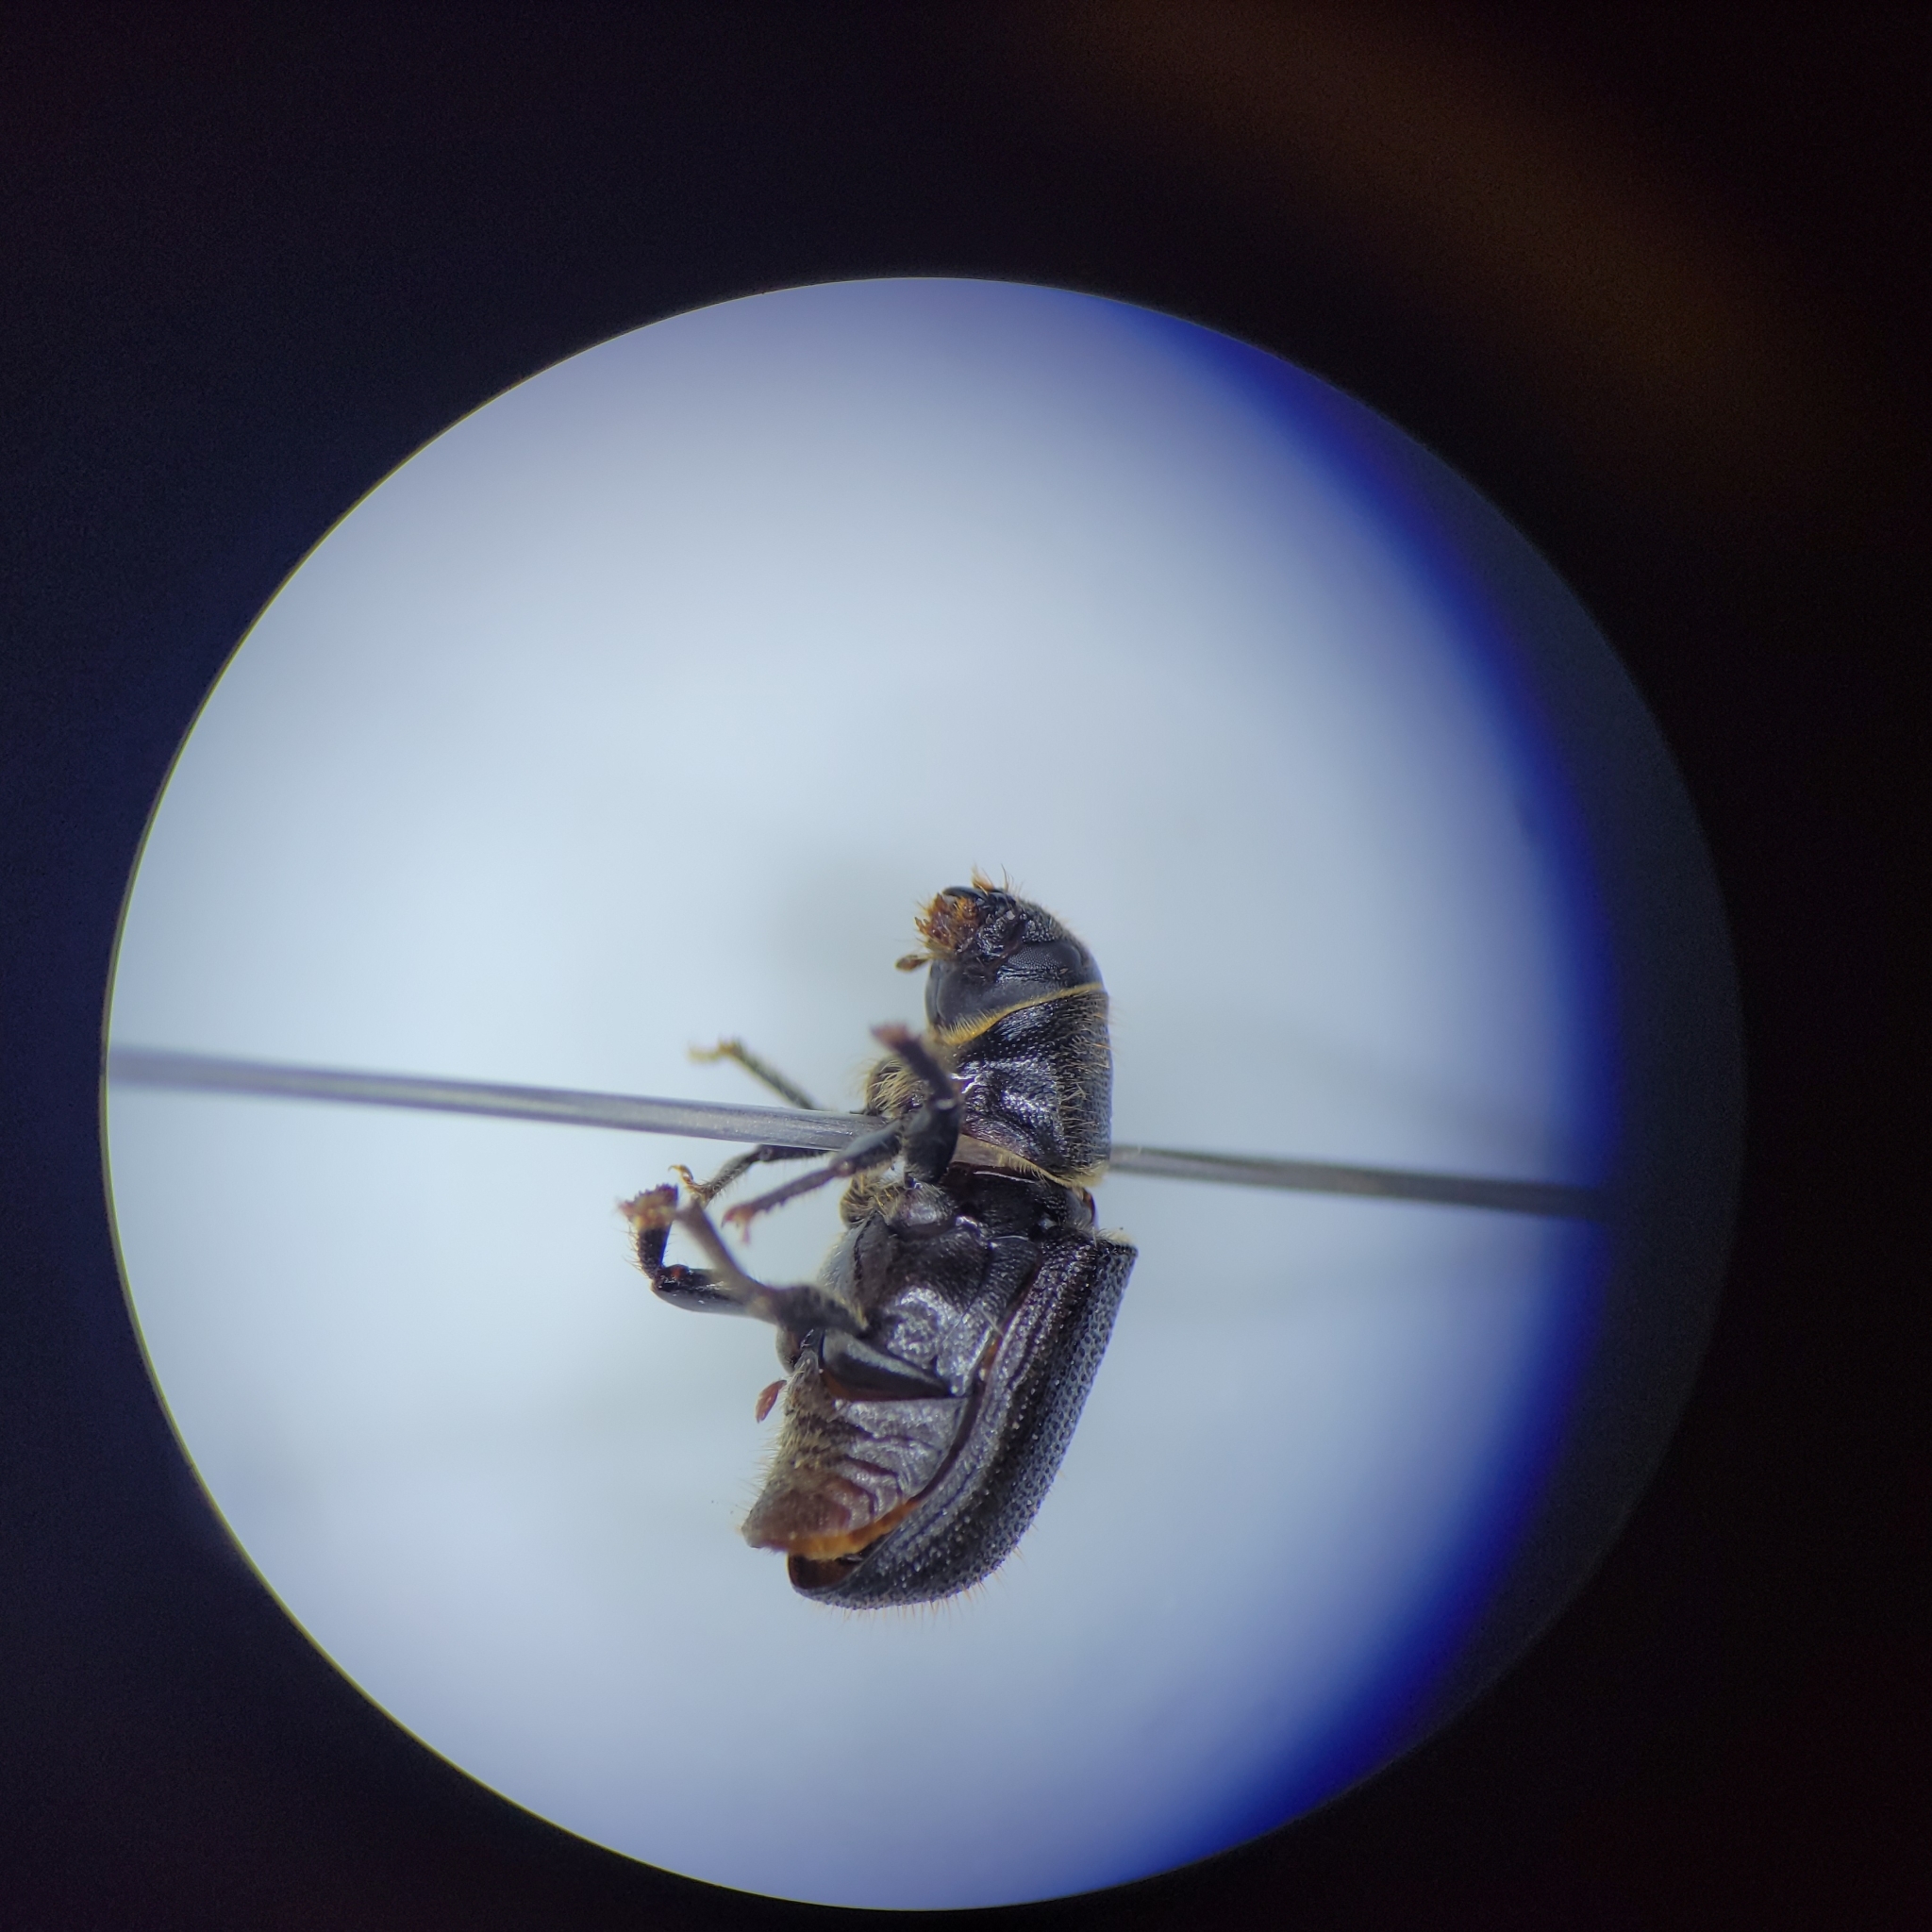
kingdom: Animalia
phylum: Arthropoda
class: Insecta
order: Coleoptera
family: Curculionidae
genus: Dendroctonus
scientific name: Dendroctonus terebrans
